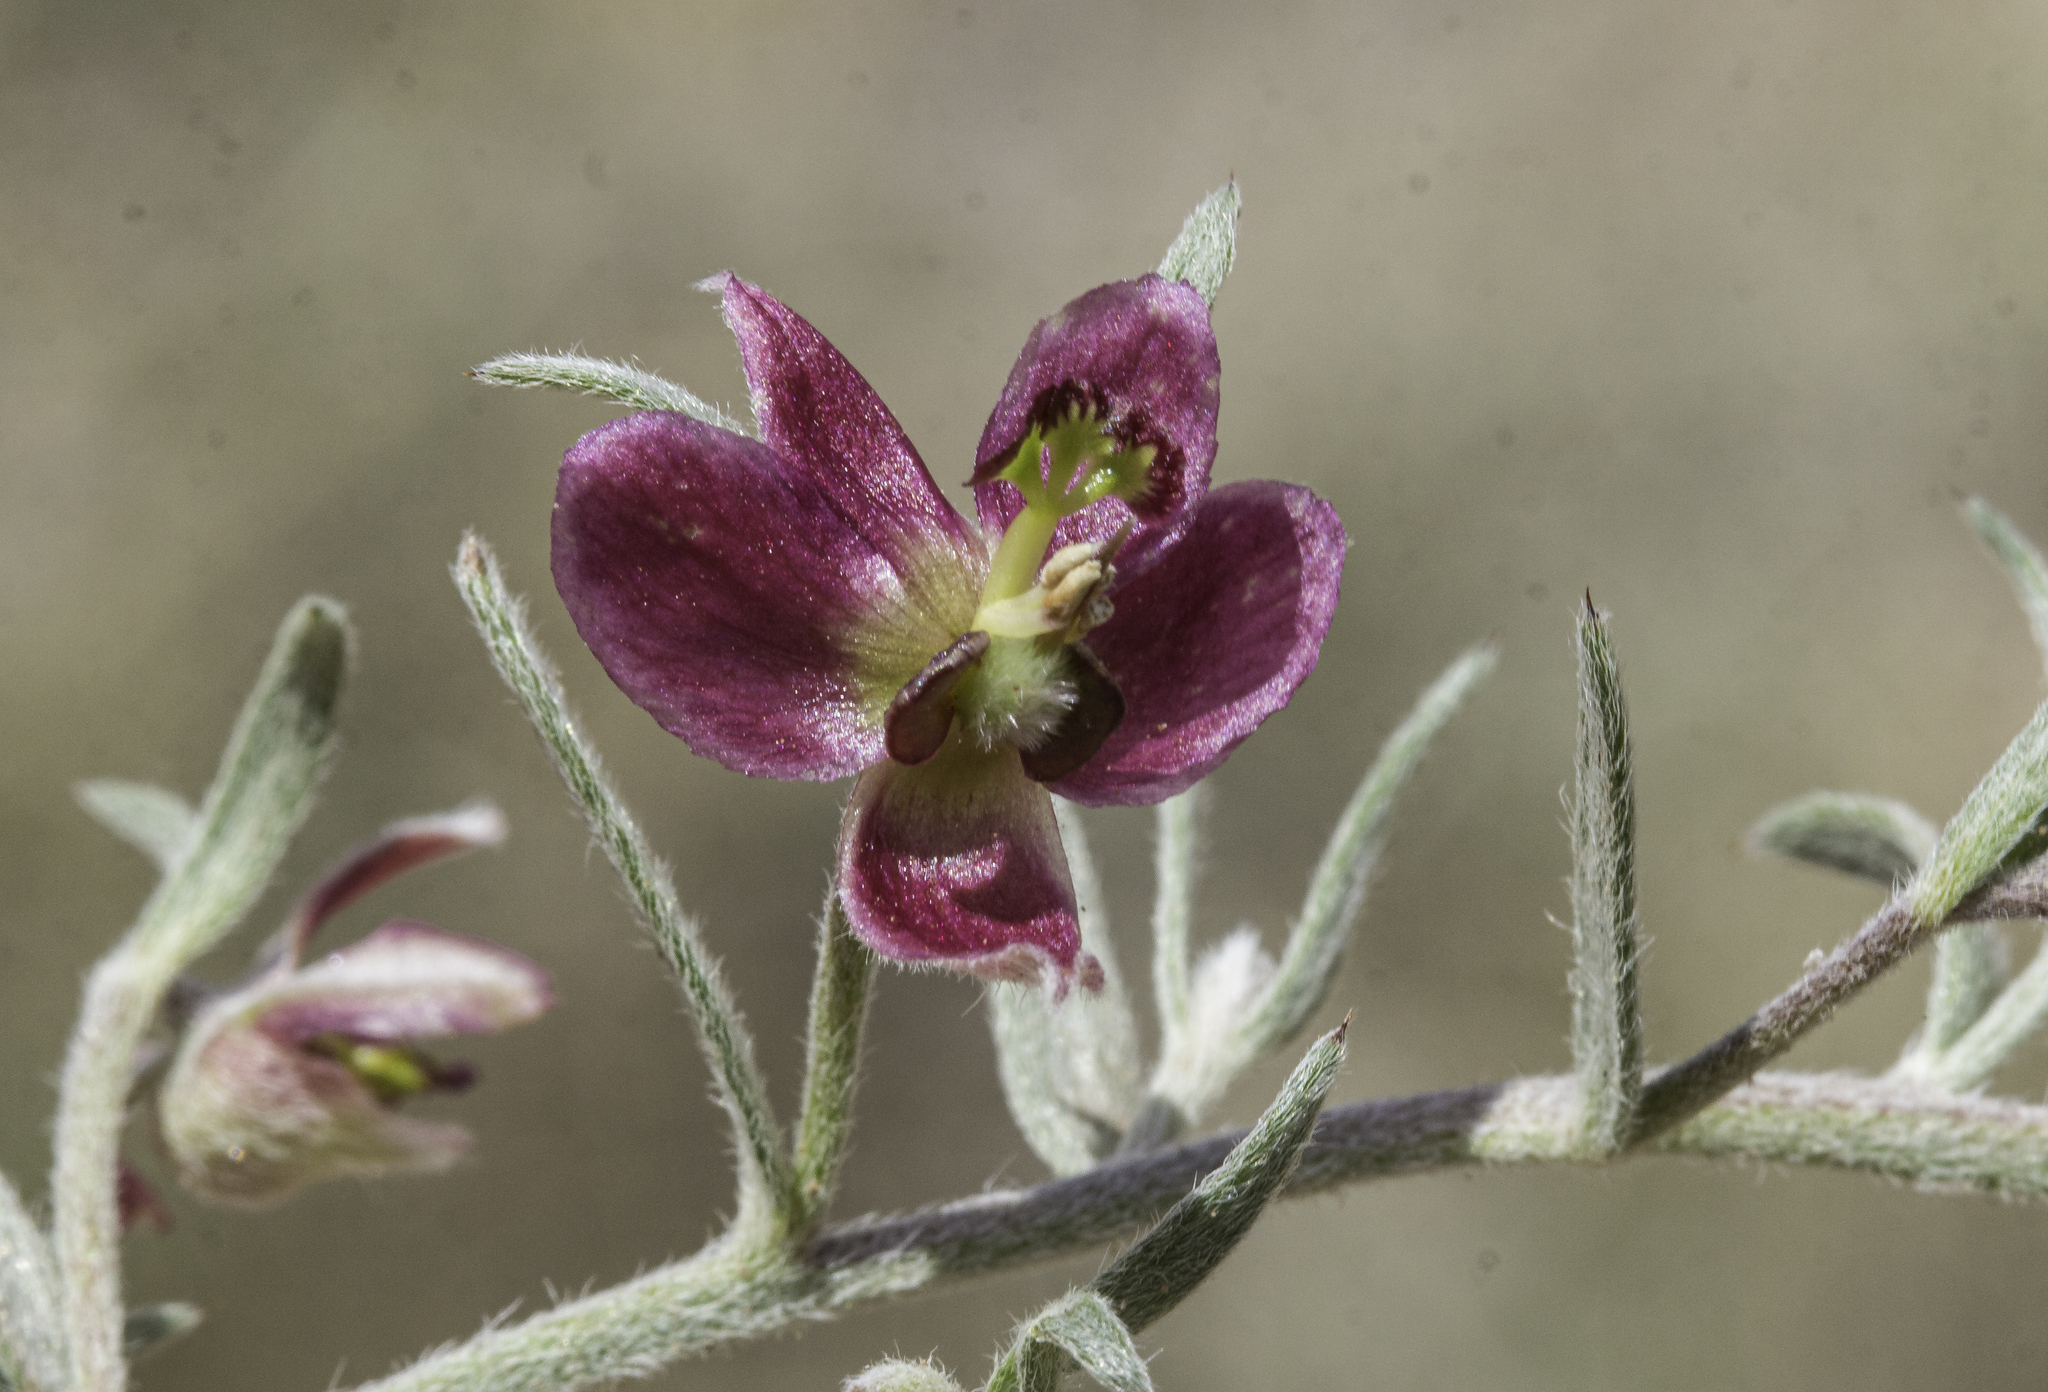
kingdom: Plantae
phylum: Tracheophyta
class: Magnoliopsida
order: Zygophyllales
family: Krameriaceae
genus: Krameria
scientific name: Krameria lanceolata
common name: Ratany
